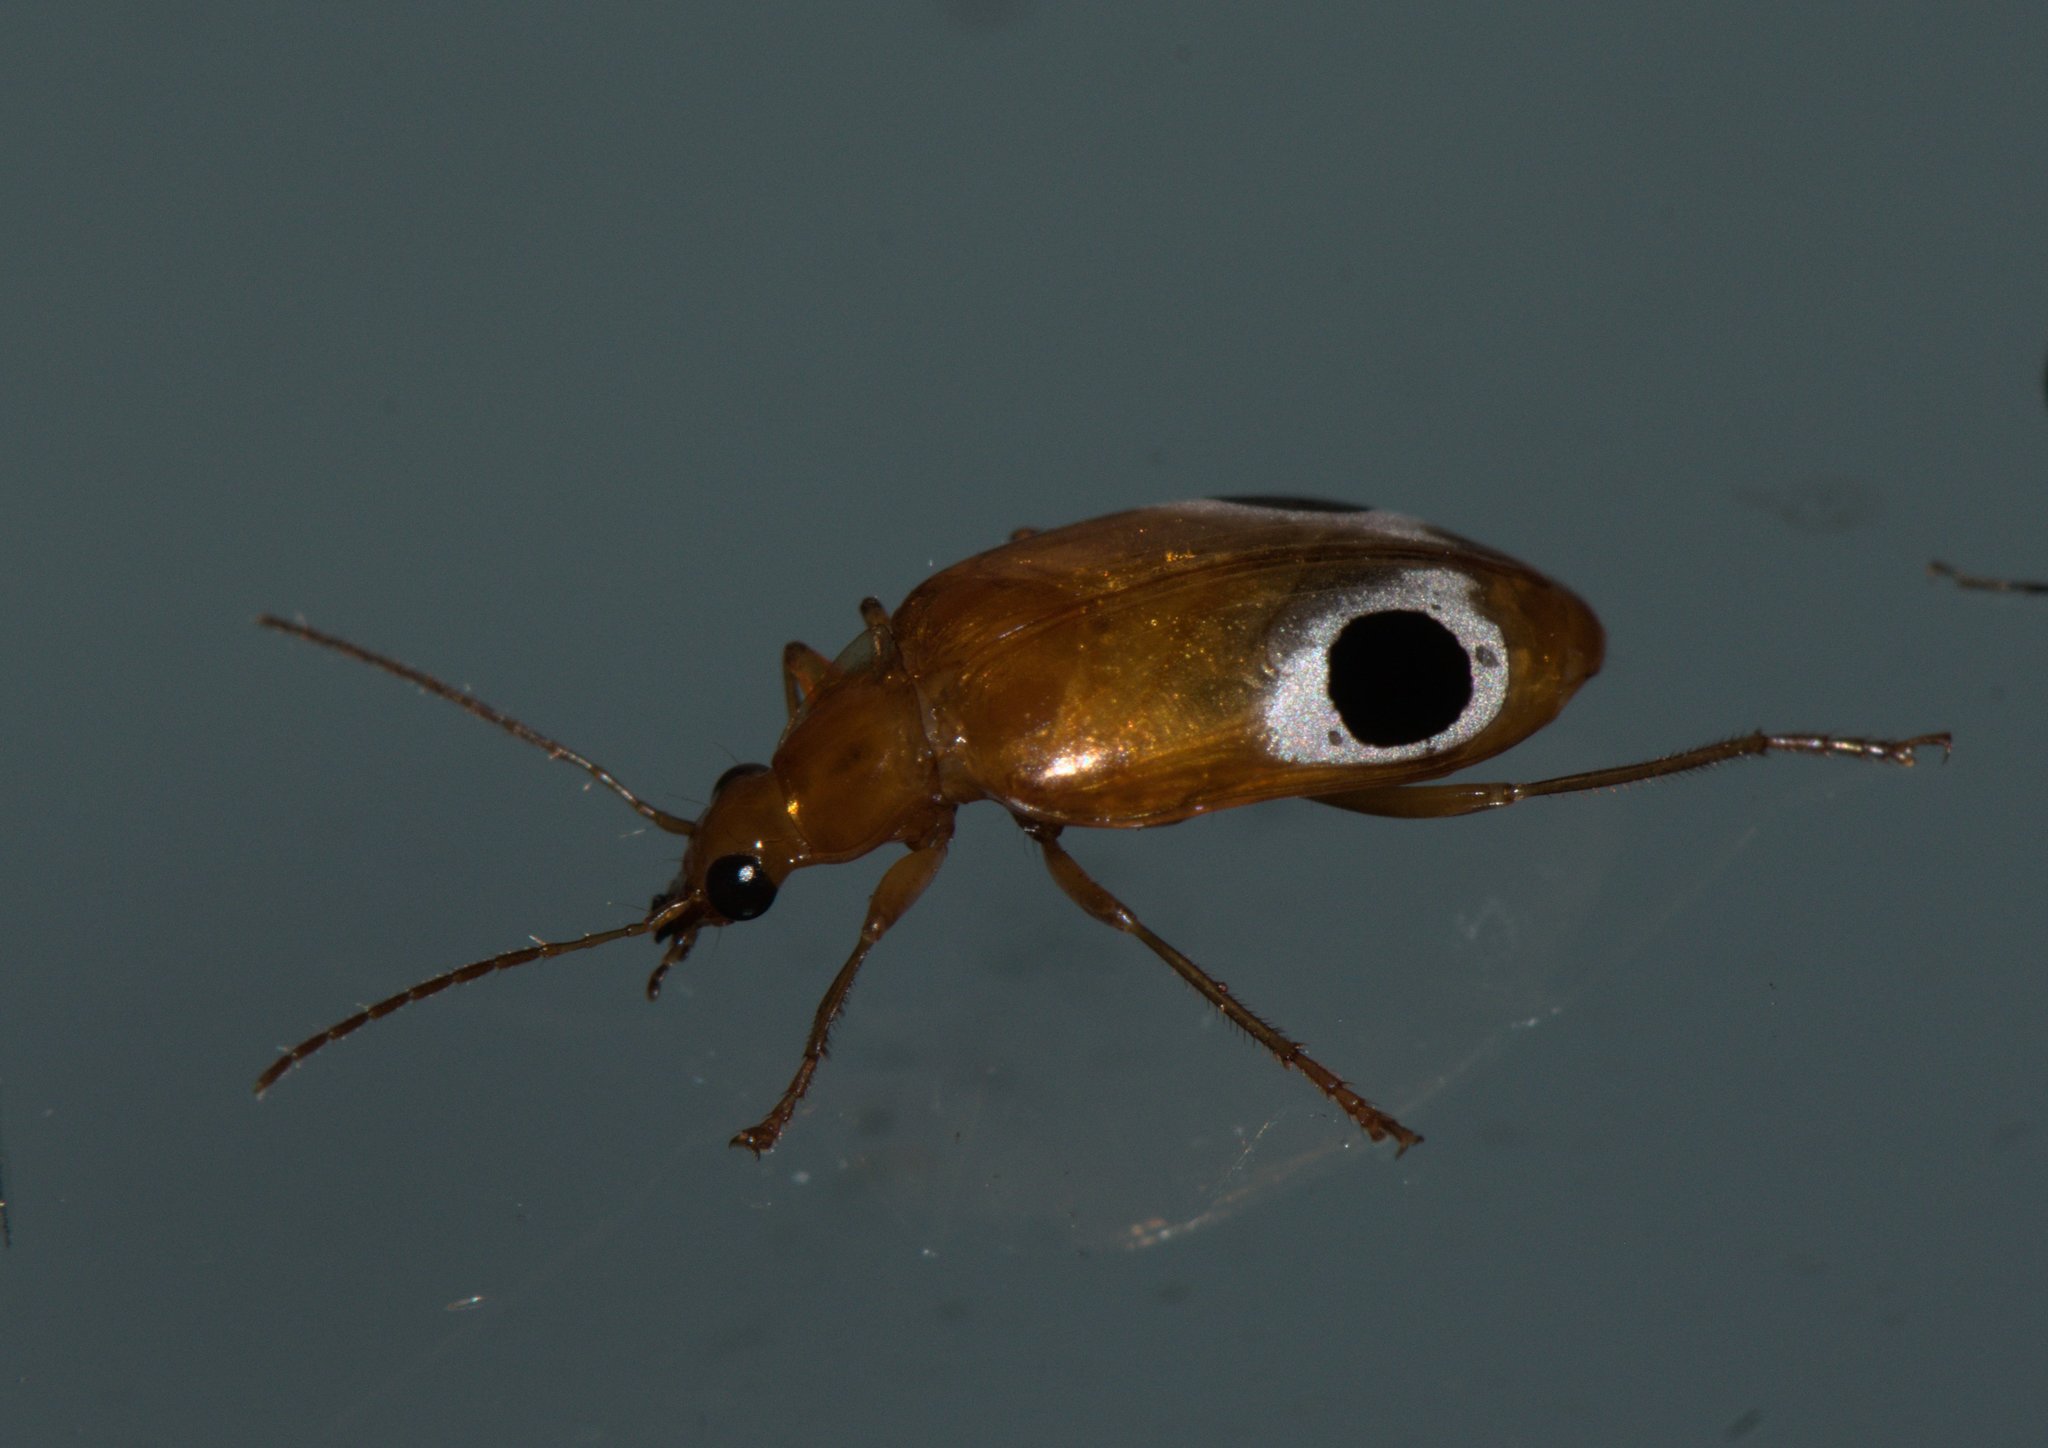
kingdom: Animalia
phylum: Arthropoda
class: Insecta
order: Coleoptera
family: Carabidae
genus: Lebidia
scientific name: Lebidia bioculata
